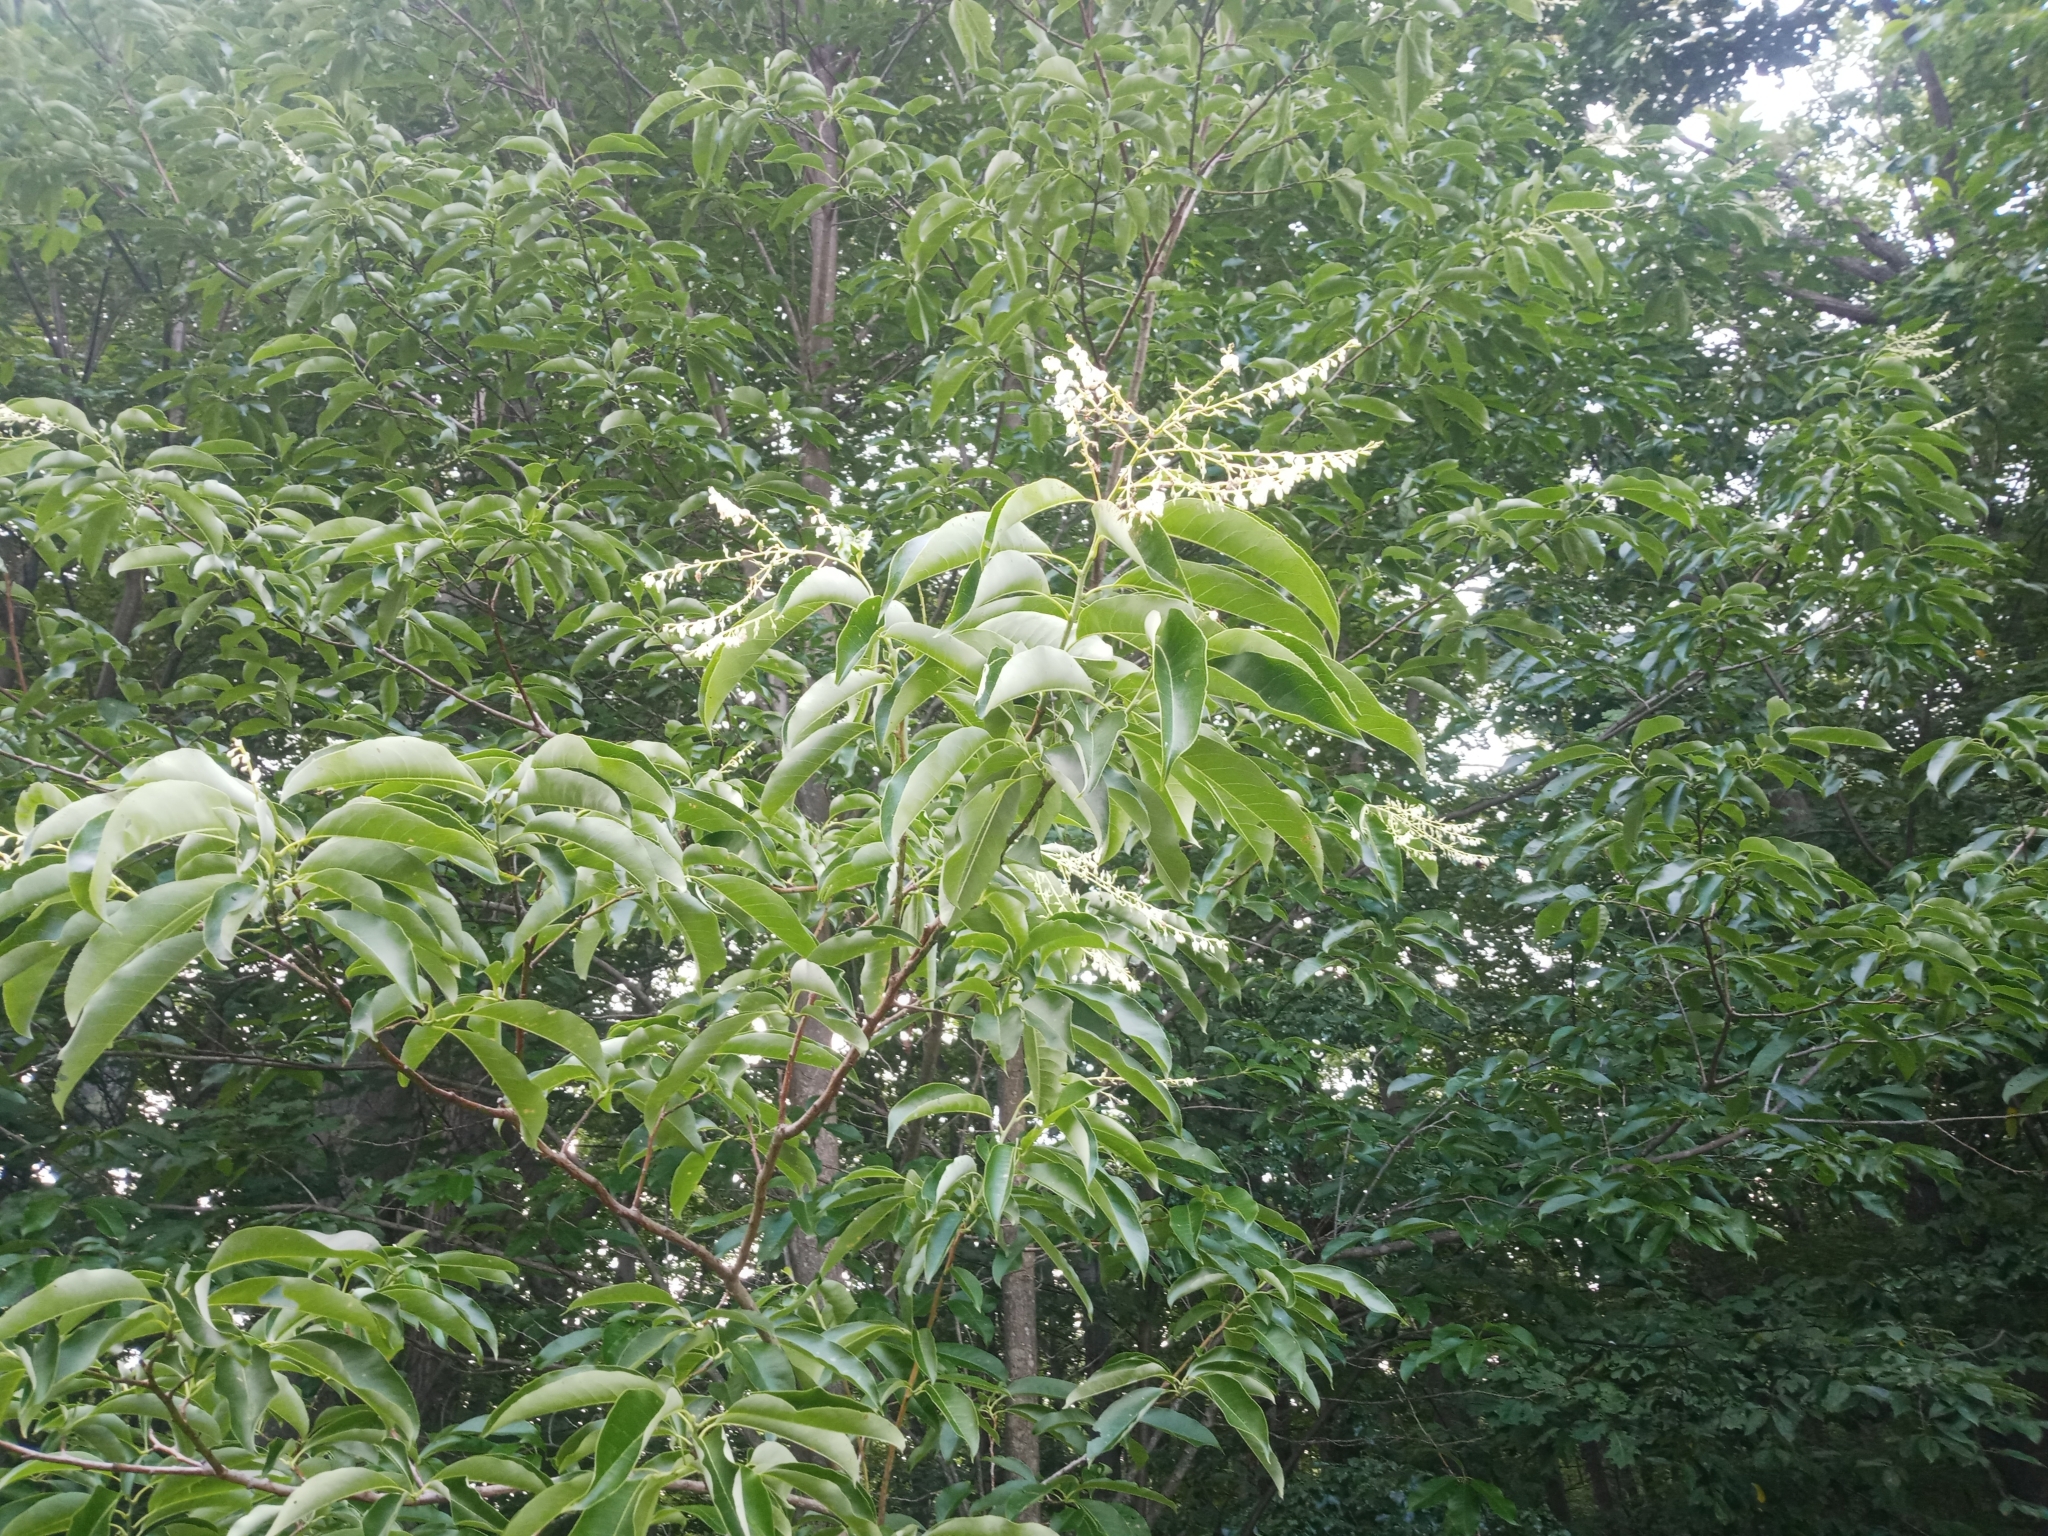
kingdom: Plantae
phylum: Tracheophyta
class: Magnoliopsida
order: Ericales
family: Ericaceae
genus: Oxydendrum
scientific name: Oxydendrum arboreum
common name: Sourwood
